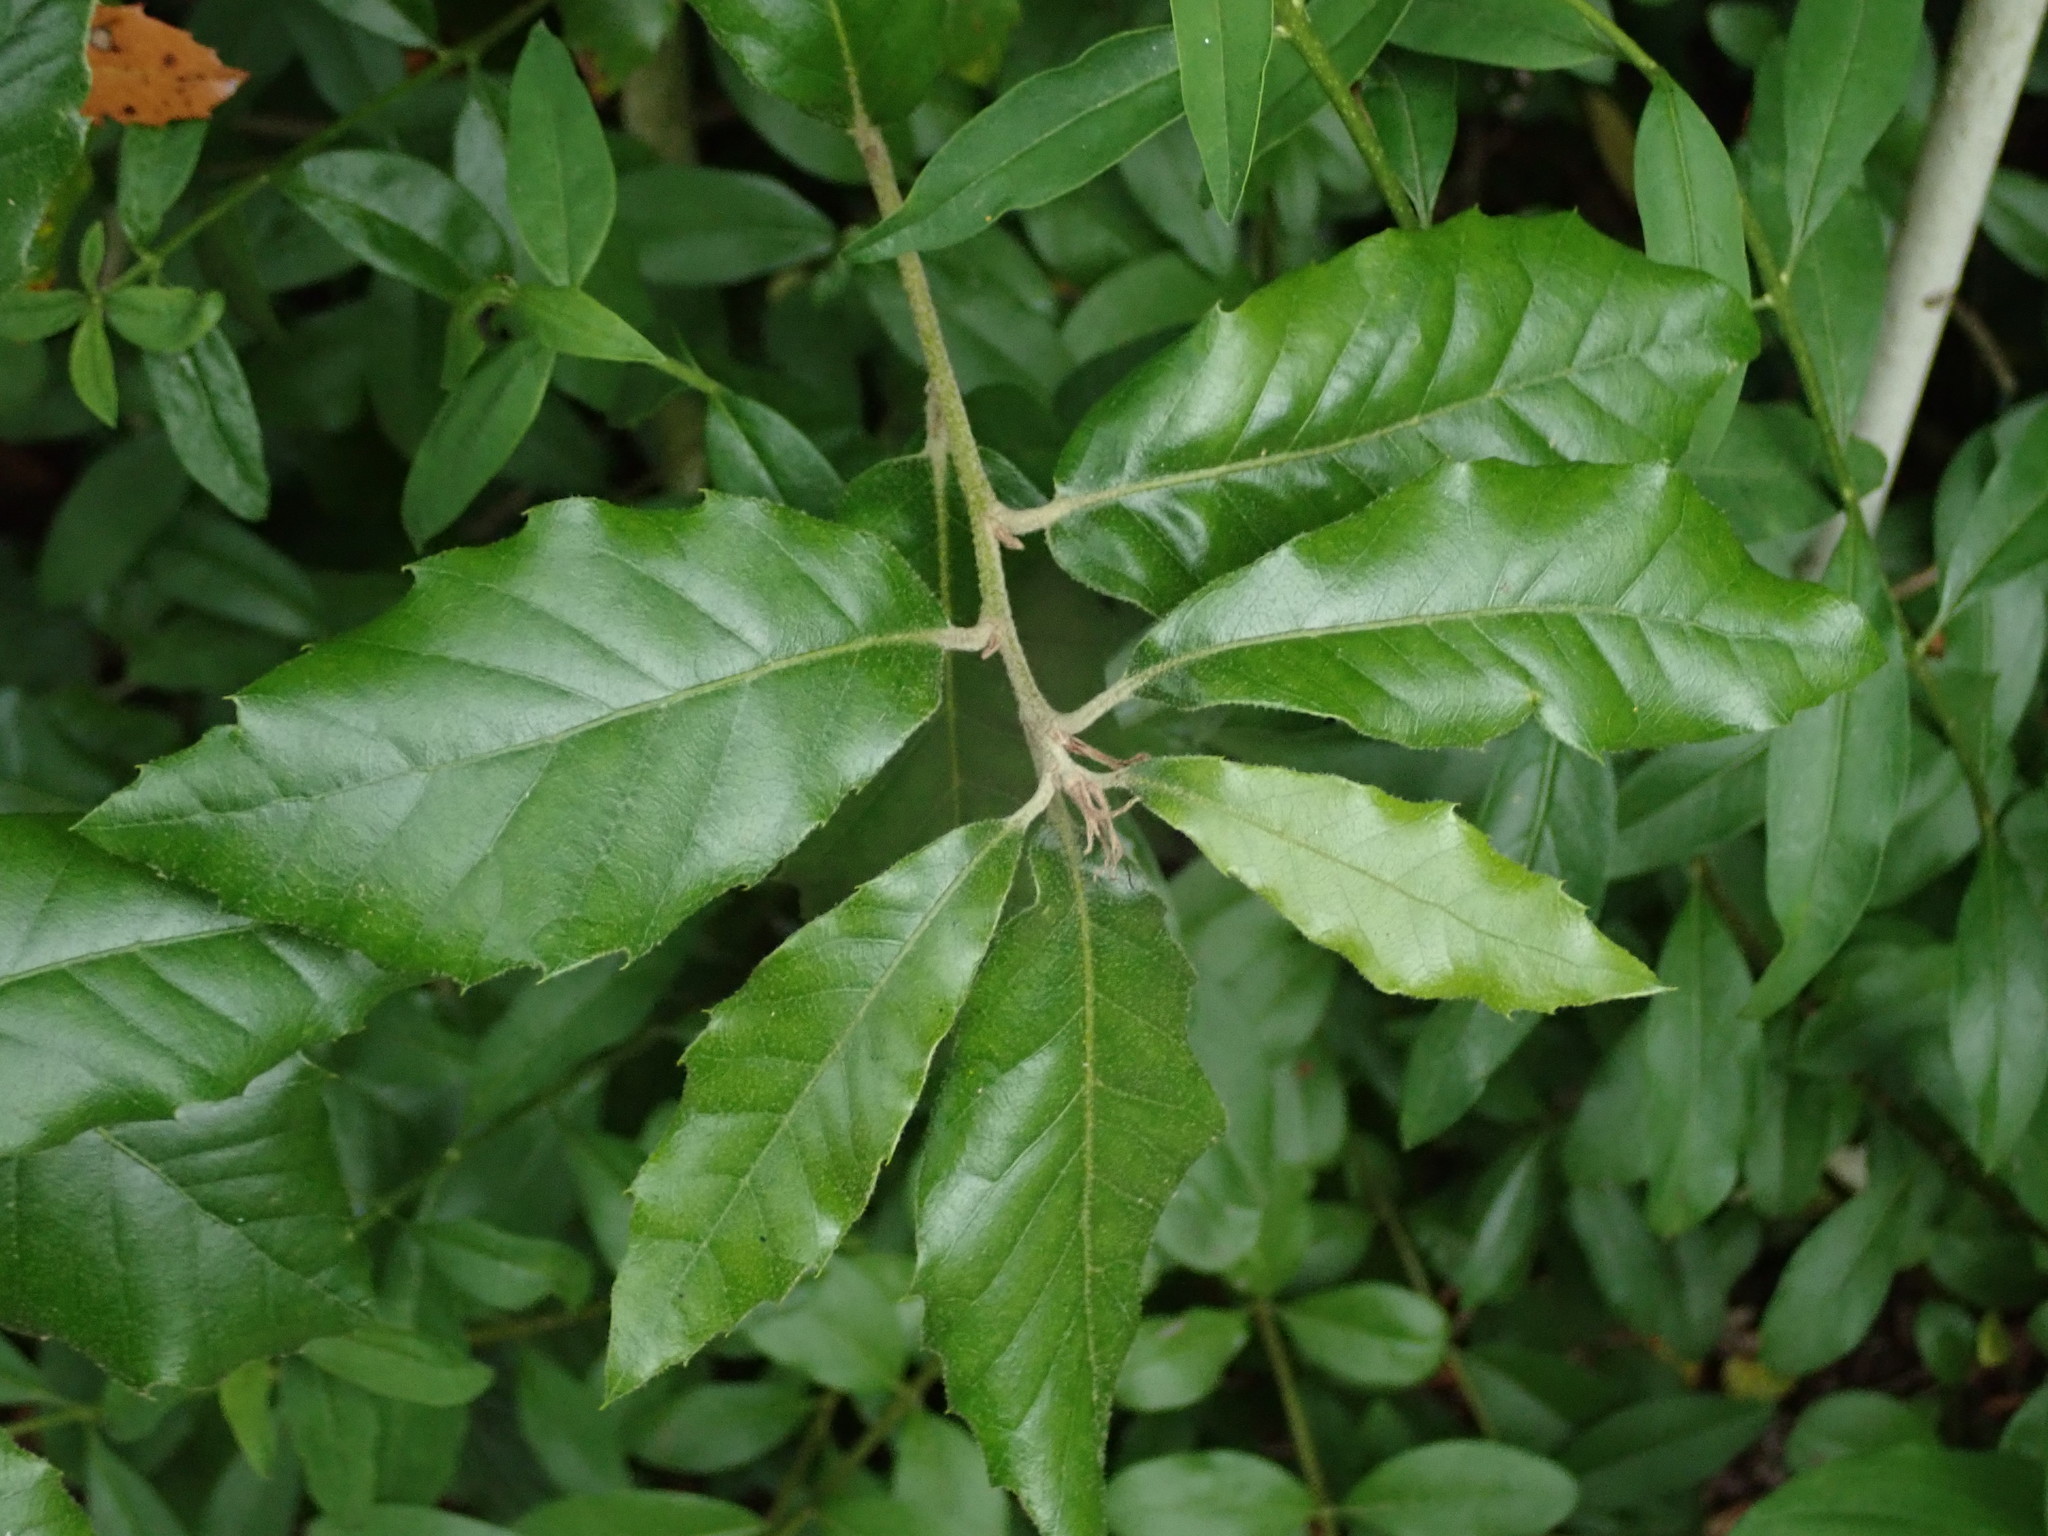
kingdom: Plantae
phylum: Tracheophyta
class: Magnoliopsida
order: Fagales
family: Fagaceae
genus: Quercus
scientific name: Quercus ilex
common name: Evergreen oak
